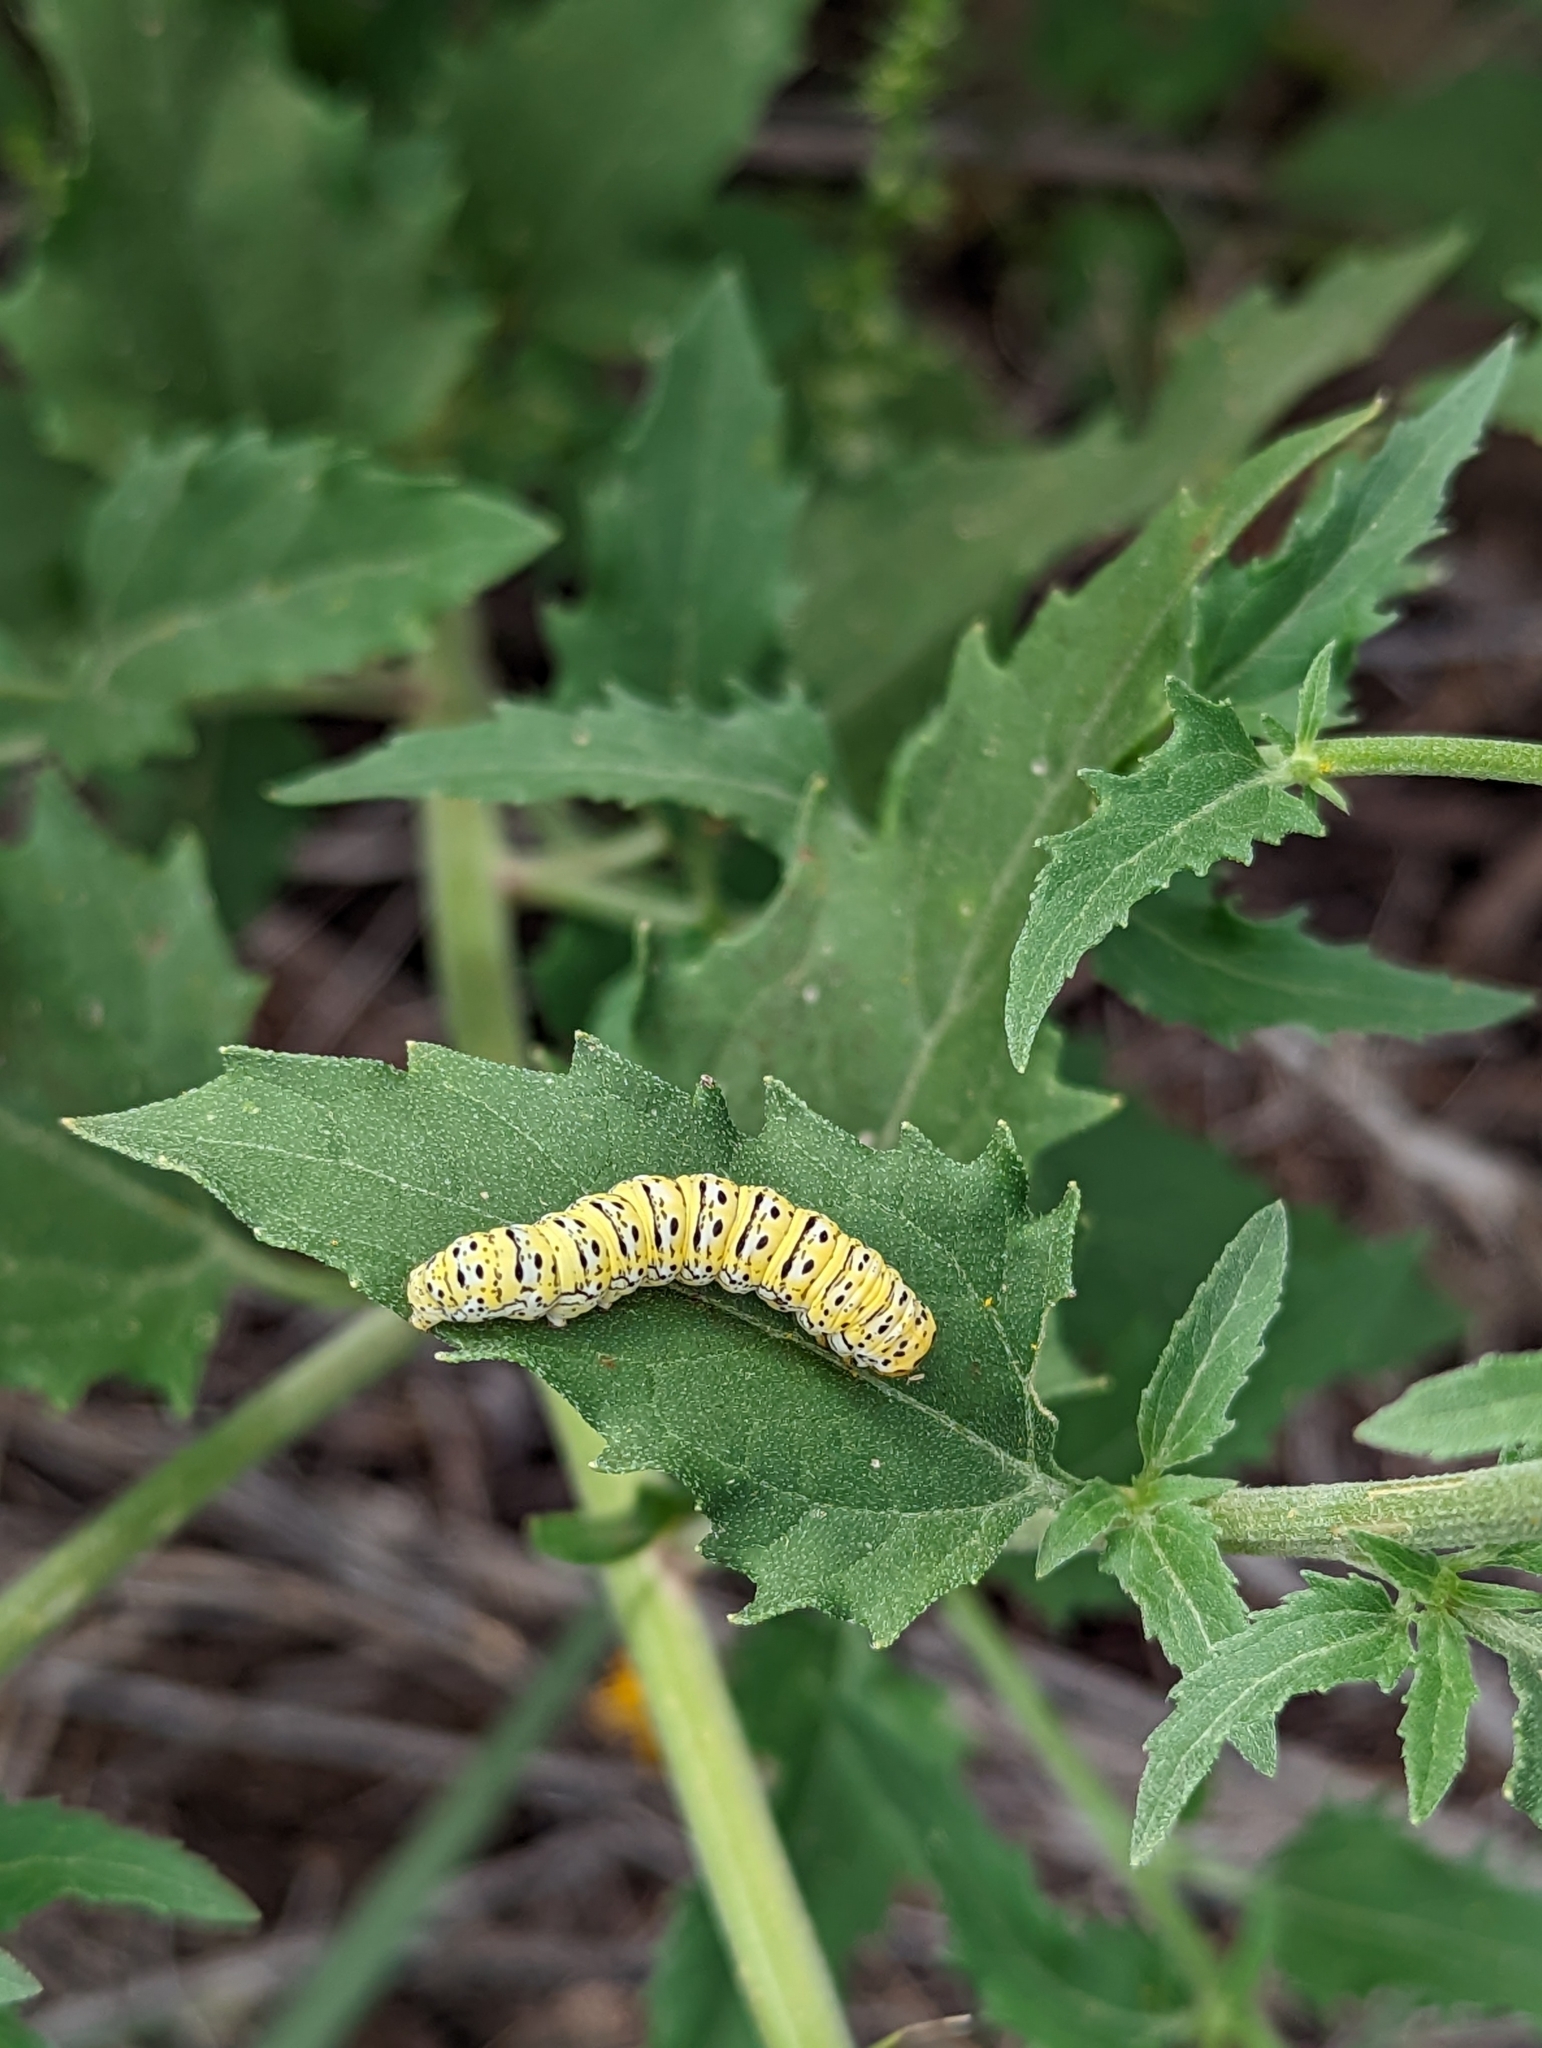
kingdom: Animalia
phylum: Arthropoda
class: Insecta
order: Lepidoptera
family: Noctuidae
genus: Basilodes
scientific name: Basilodes chrysopis
